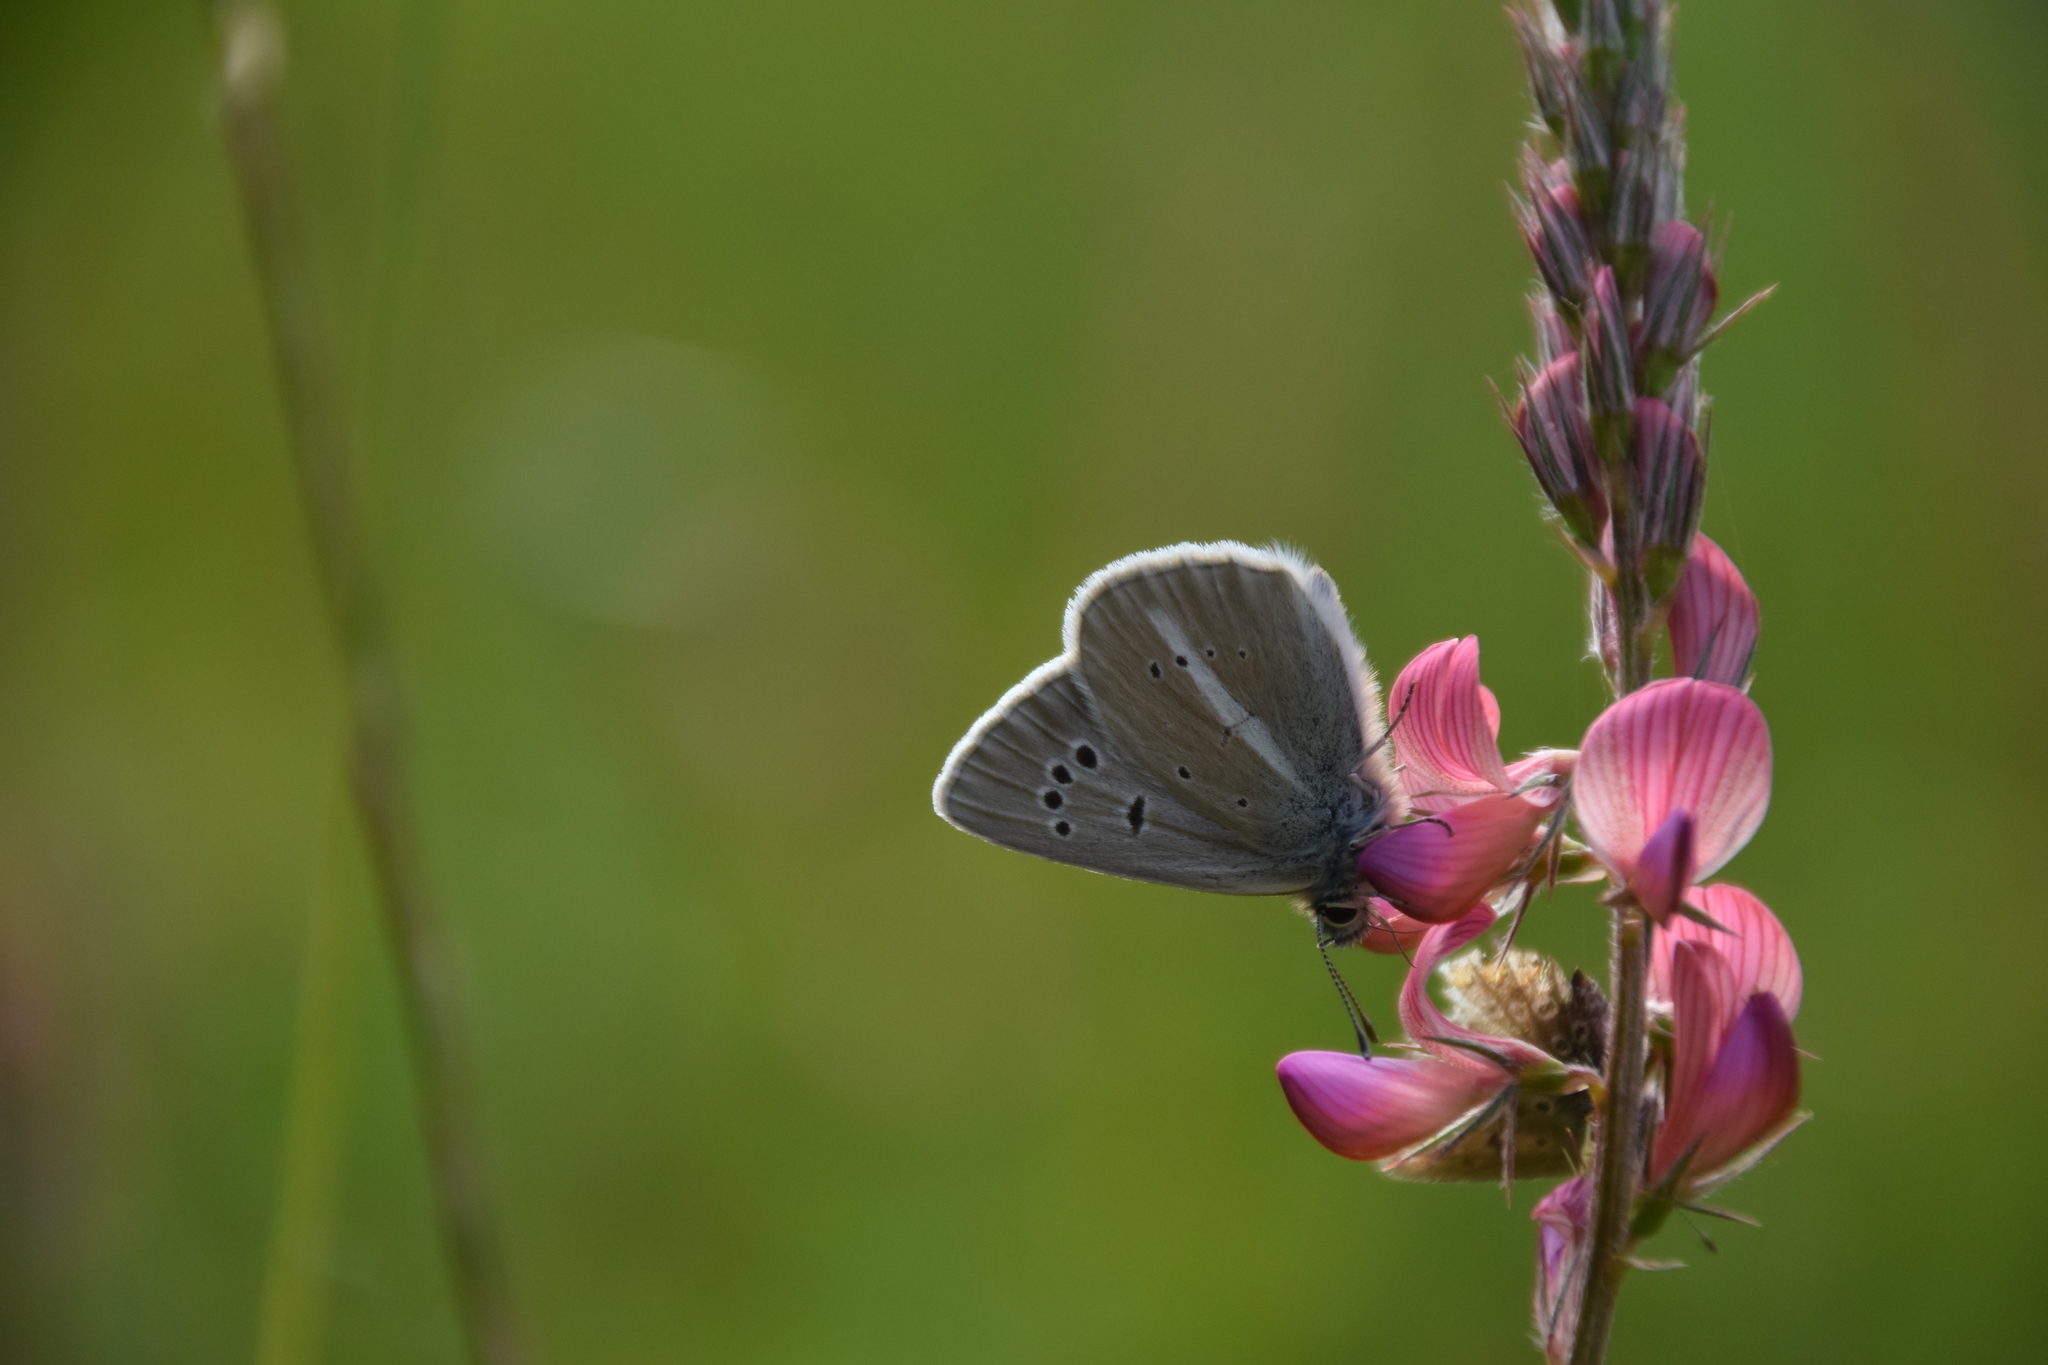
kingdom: Animalia
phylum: Arthropoda
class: Insecta
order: Lepidoptera
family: Lycaenidae
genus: Agrodiaetus
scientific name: Agrodiaetus damon
